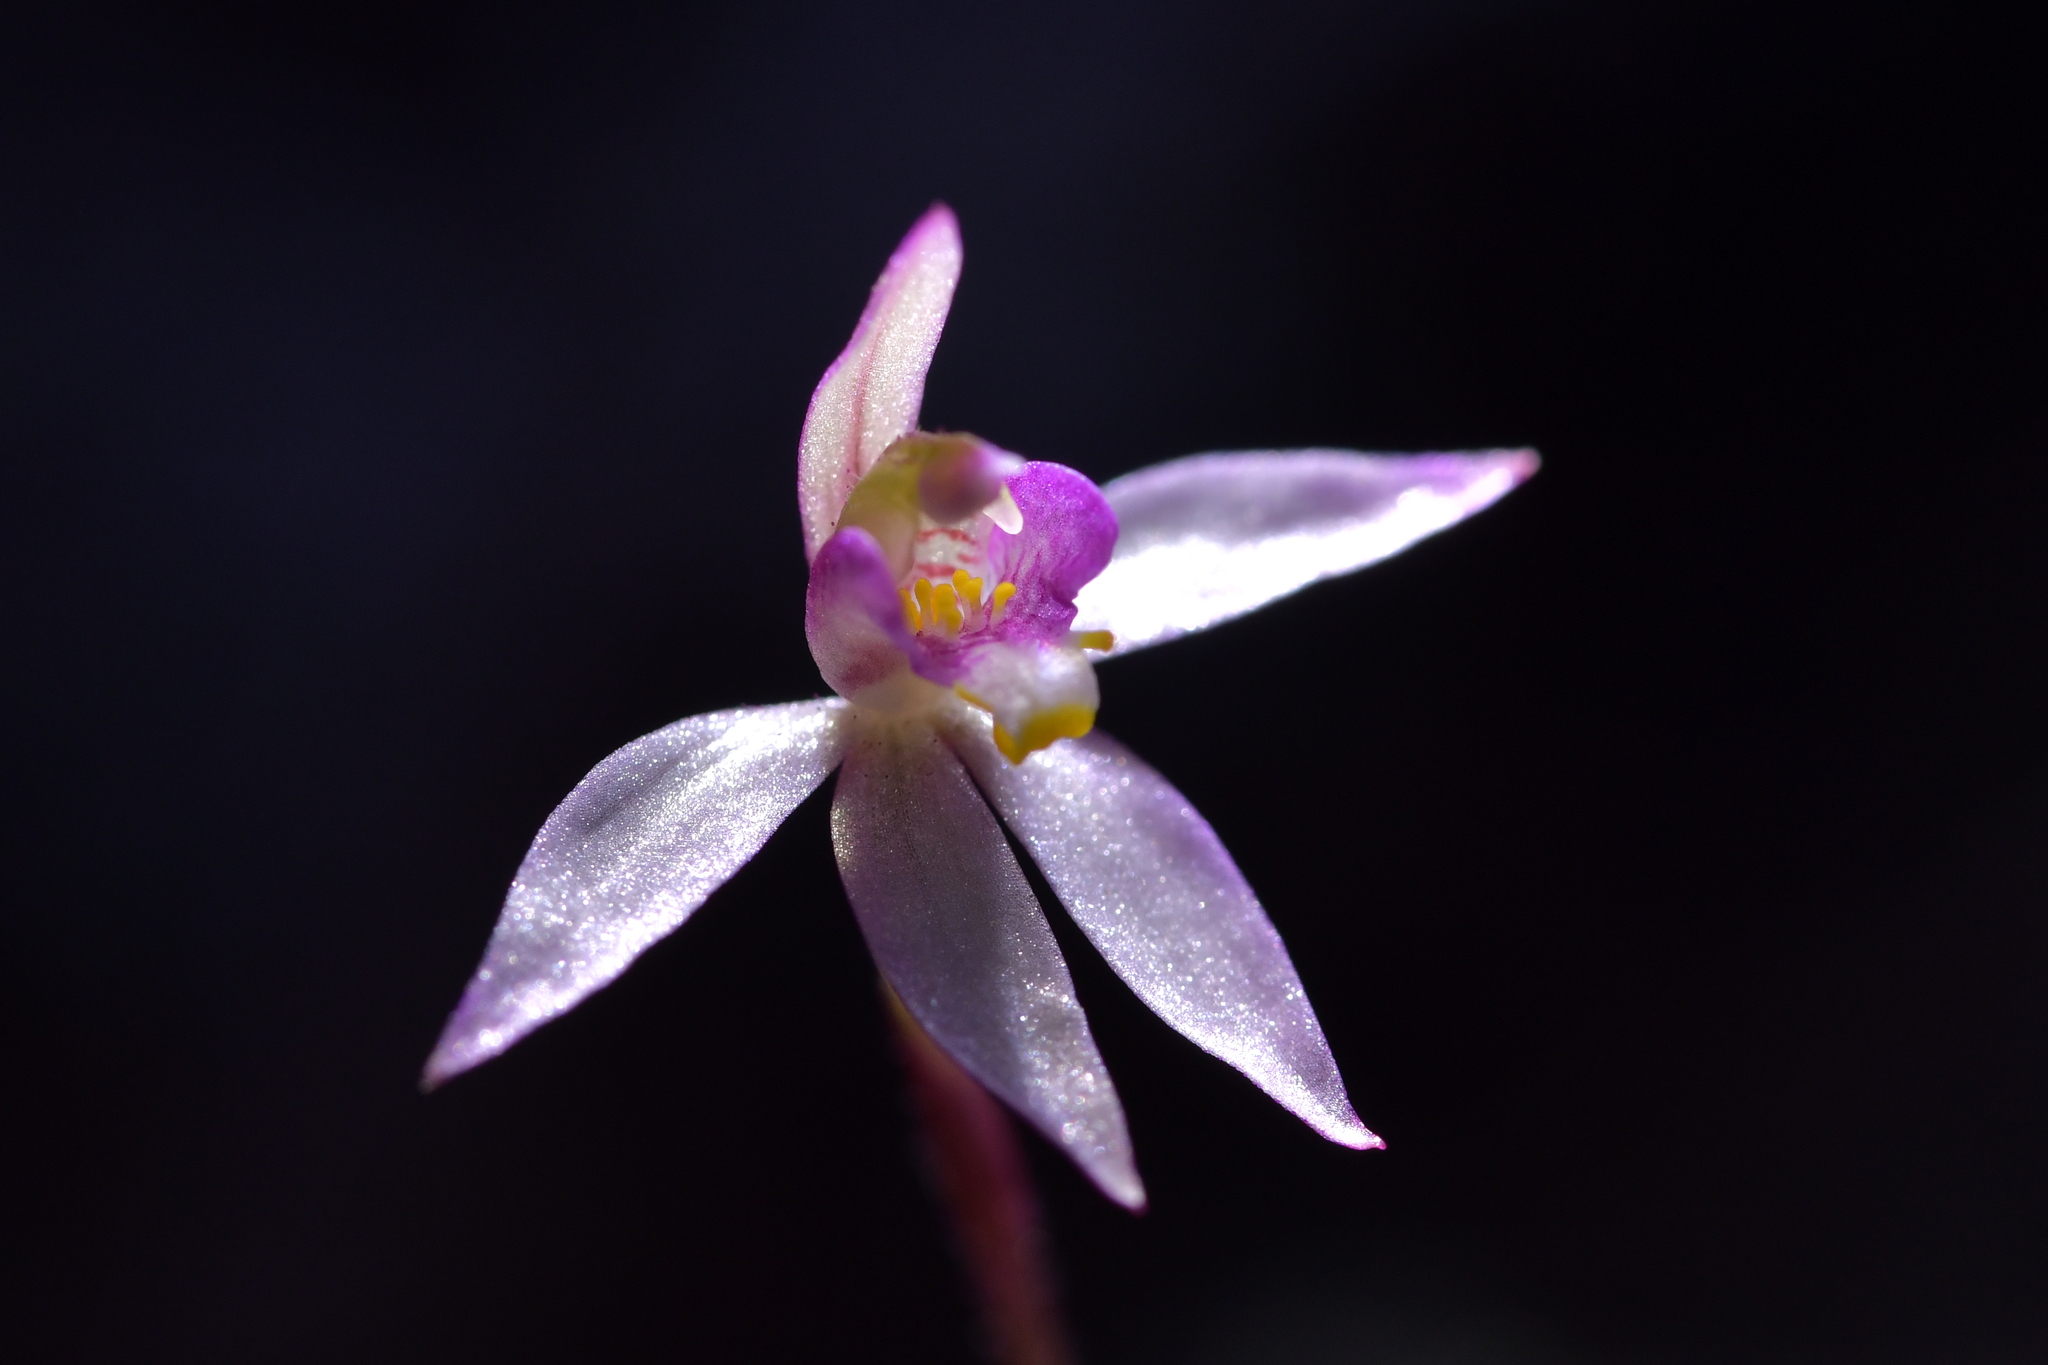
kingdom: Plantae
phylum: Tracheophyta
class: Liliopsida
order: Asparagales
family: Orchidaceae
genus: Caladenia
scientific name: Caladenia alata
